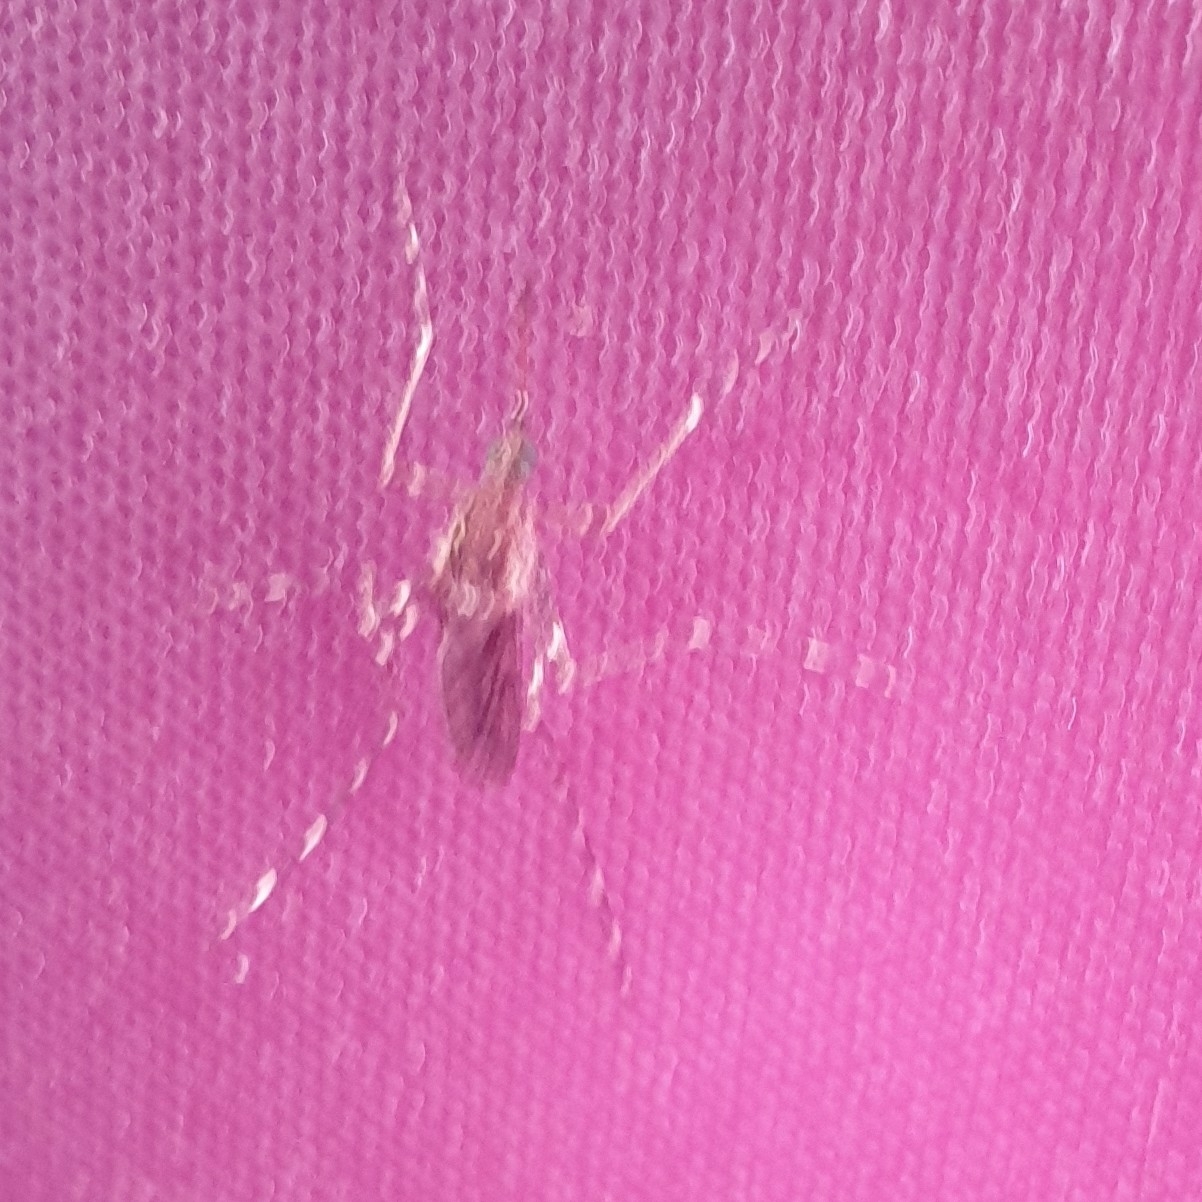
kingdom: Animalia
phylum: Arthropoda
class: Insecta
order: Diptera
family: Culicidae
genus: Culiseta
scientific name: Culiseta annulata
